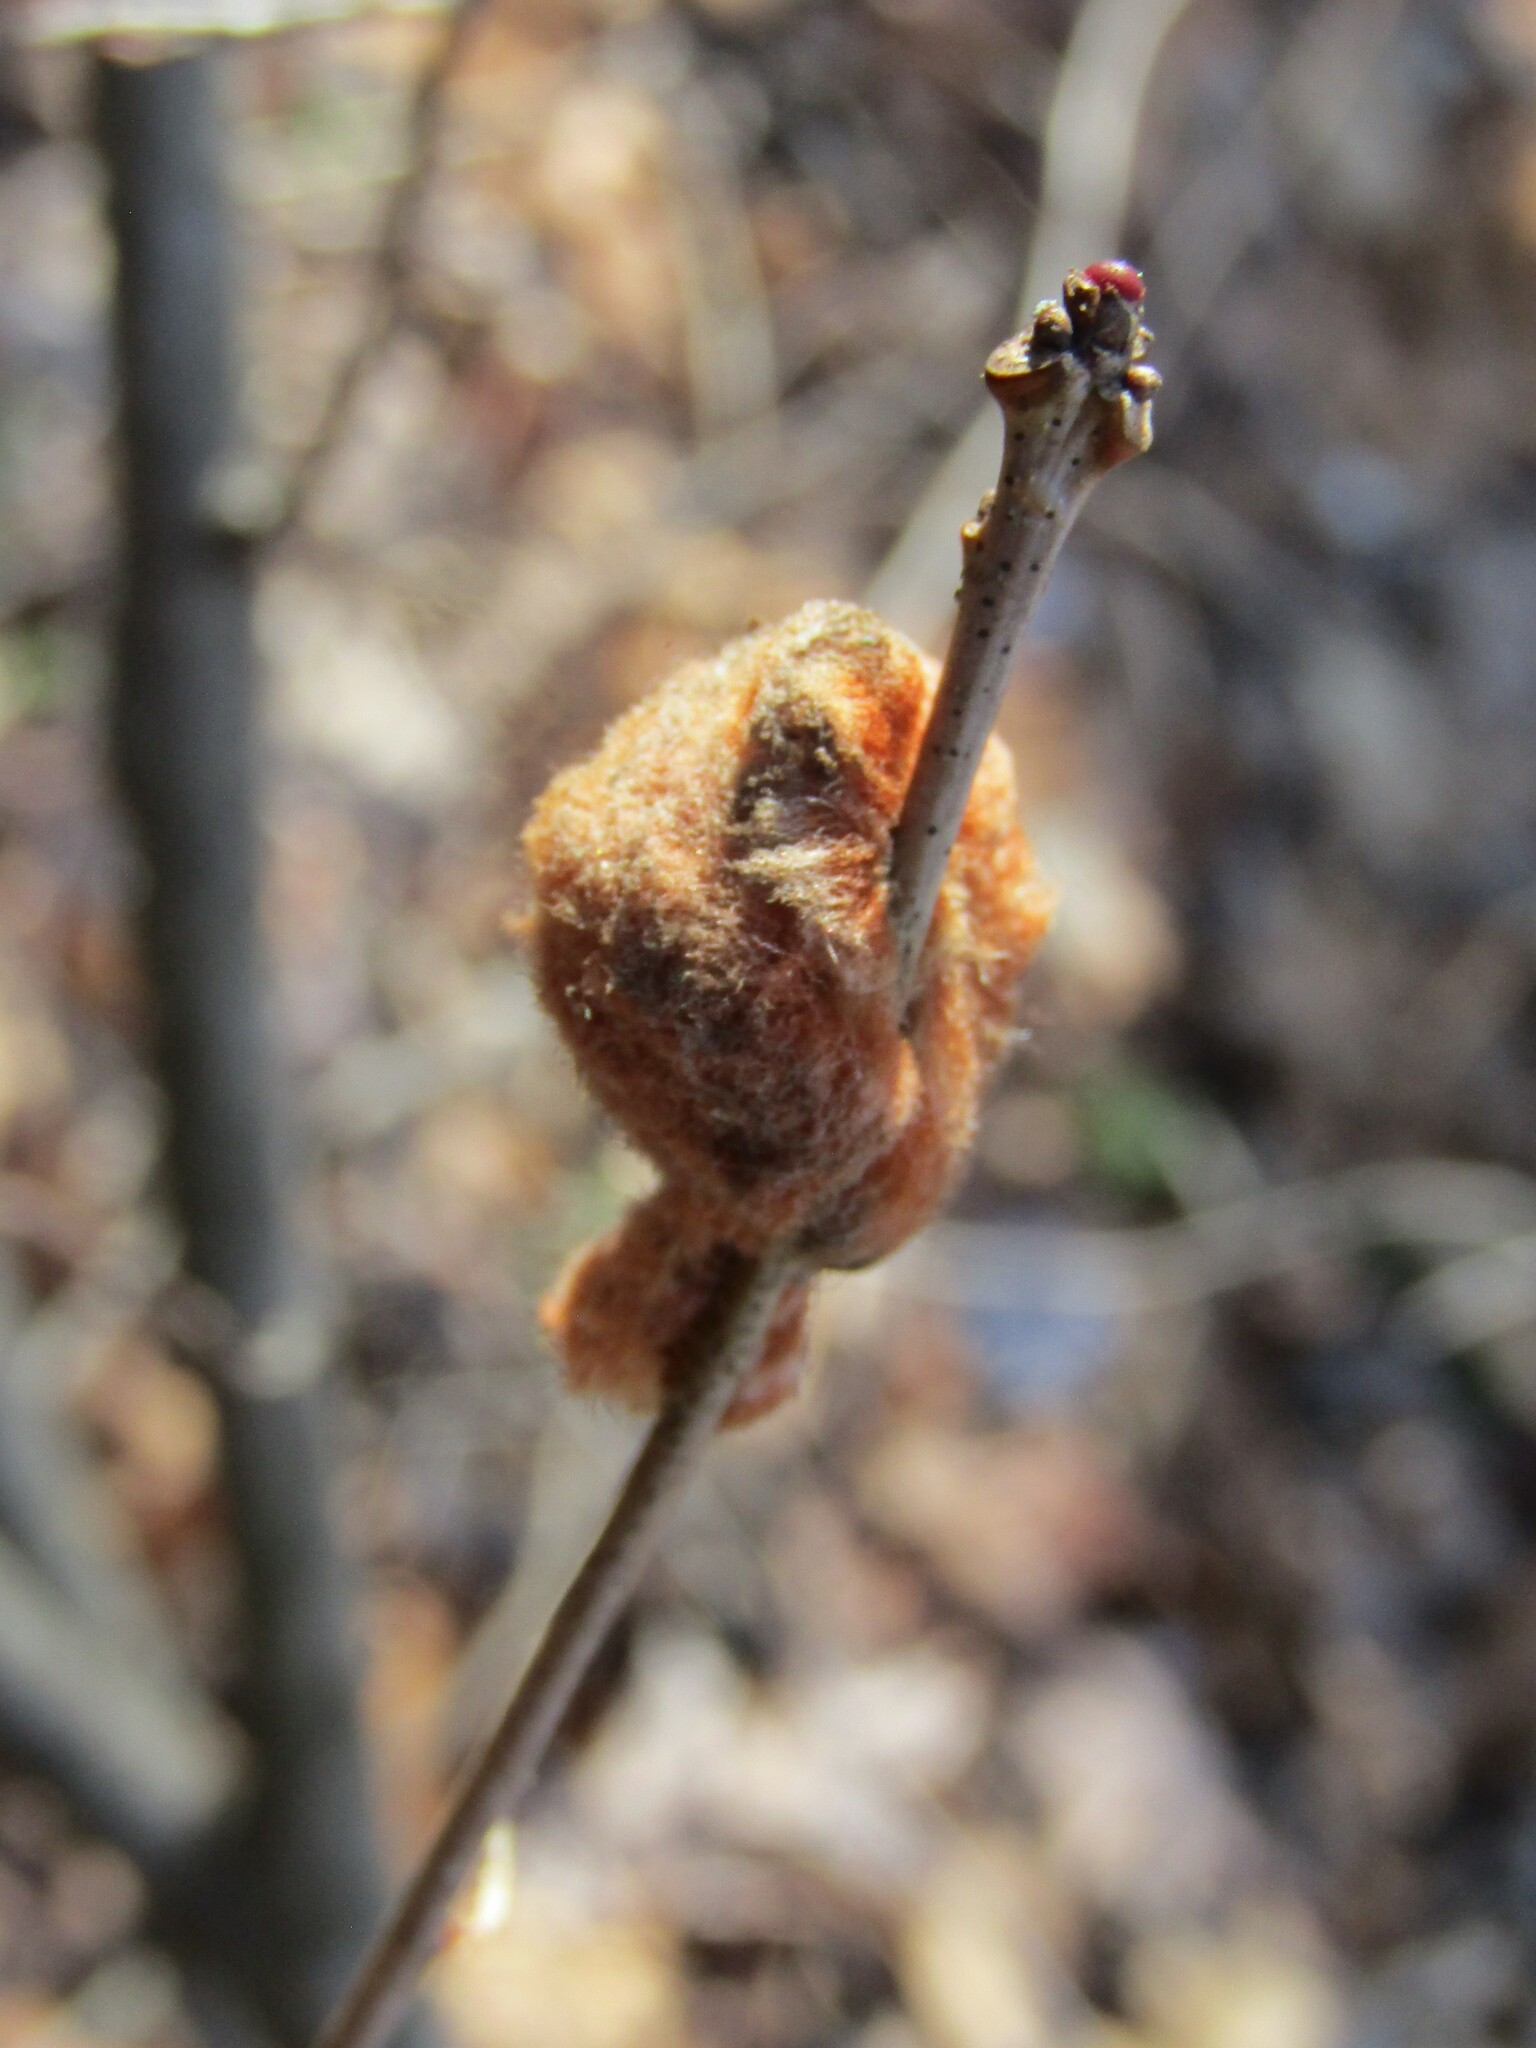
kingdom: Animalia
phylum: Arthropoda
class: Insecta
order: Hymenoptera
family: Cynipidae
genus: Andricus
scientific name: Andricus quercusflocci
